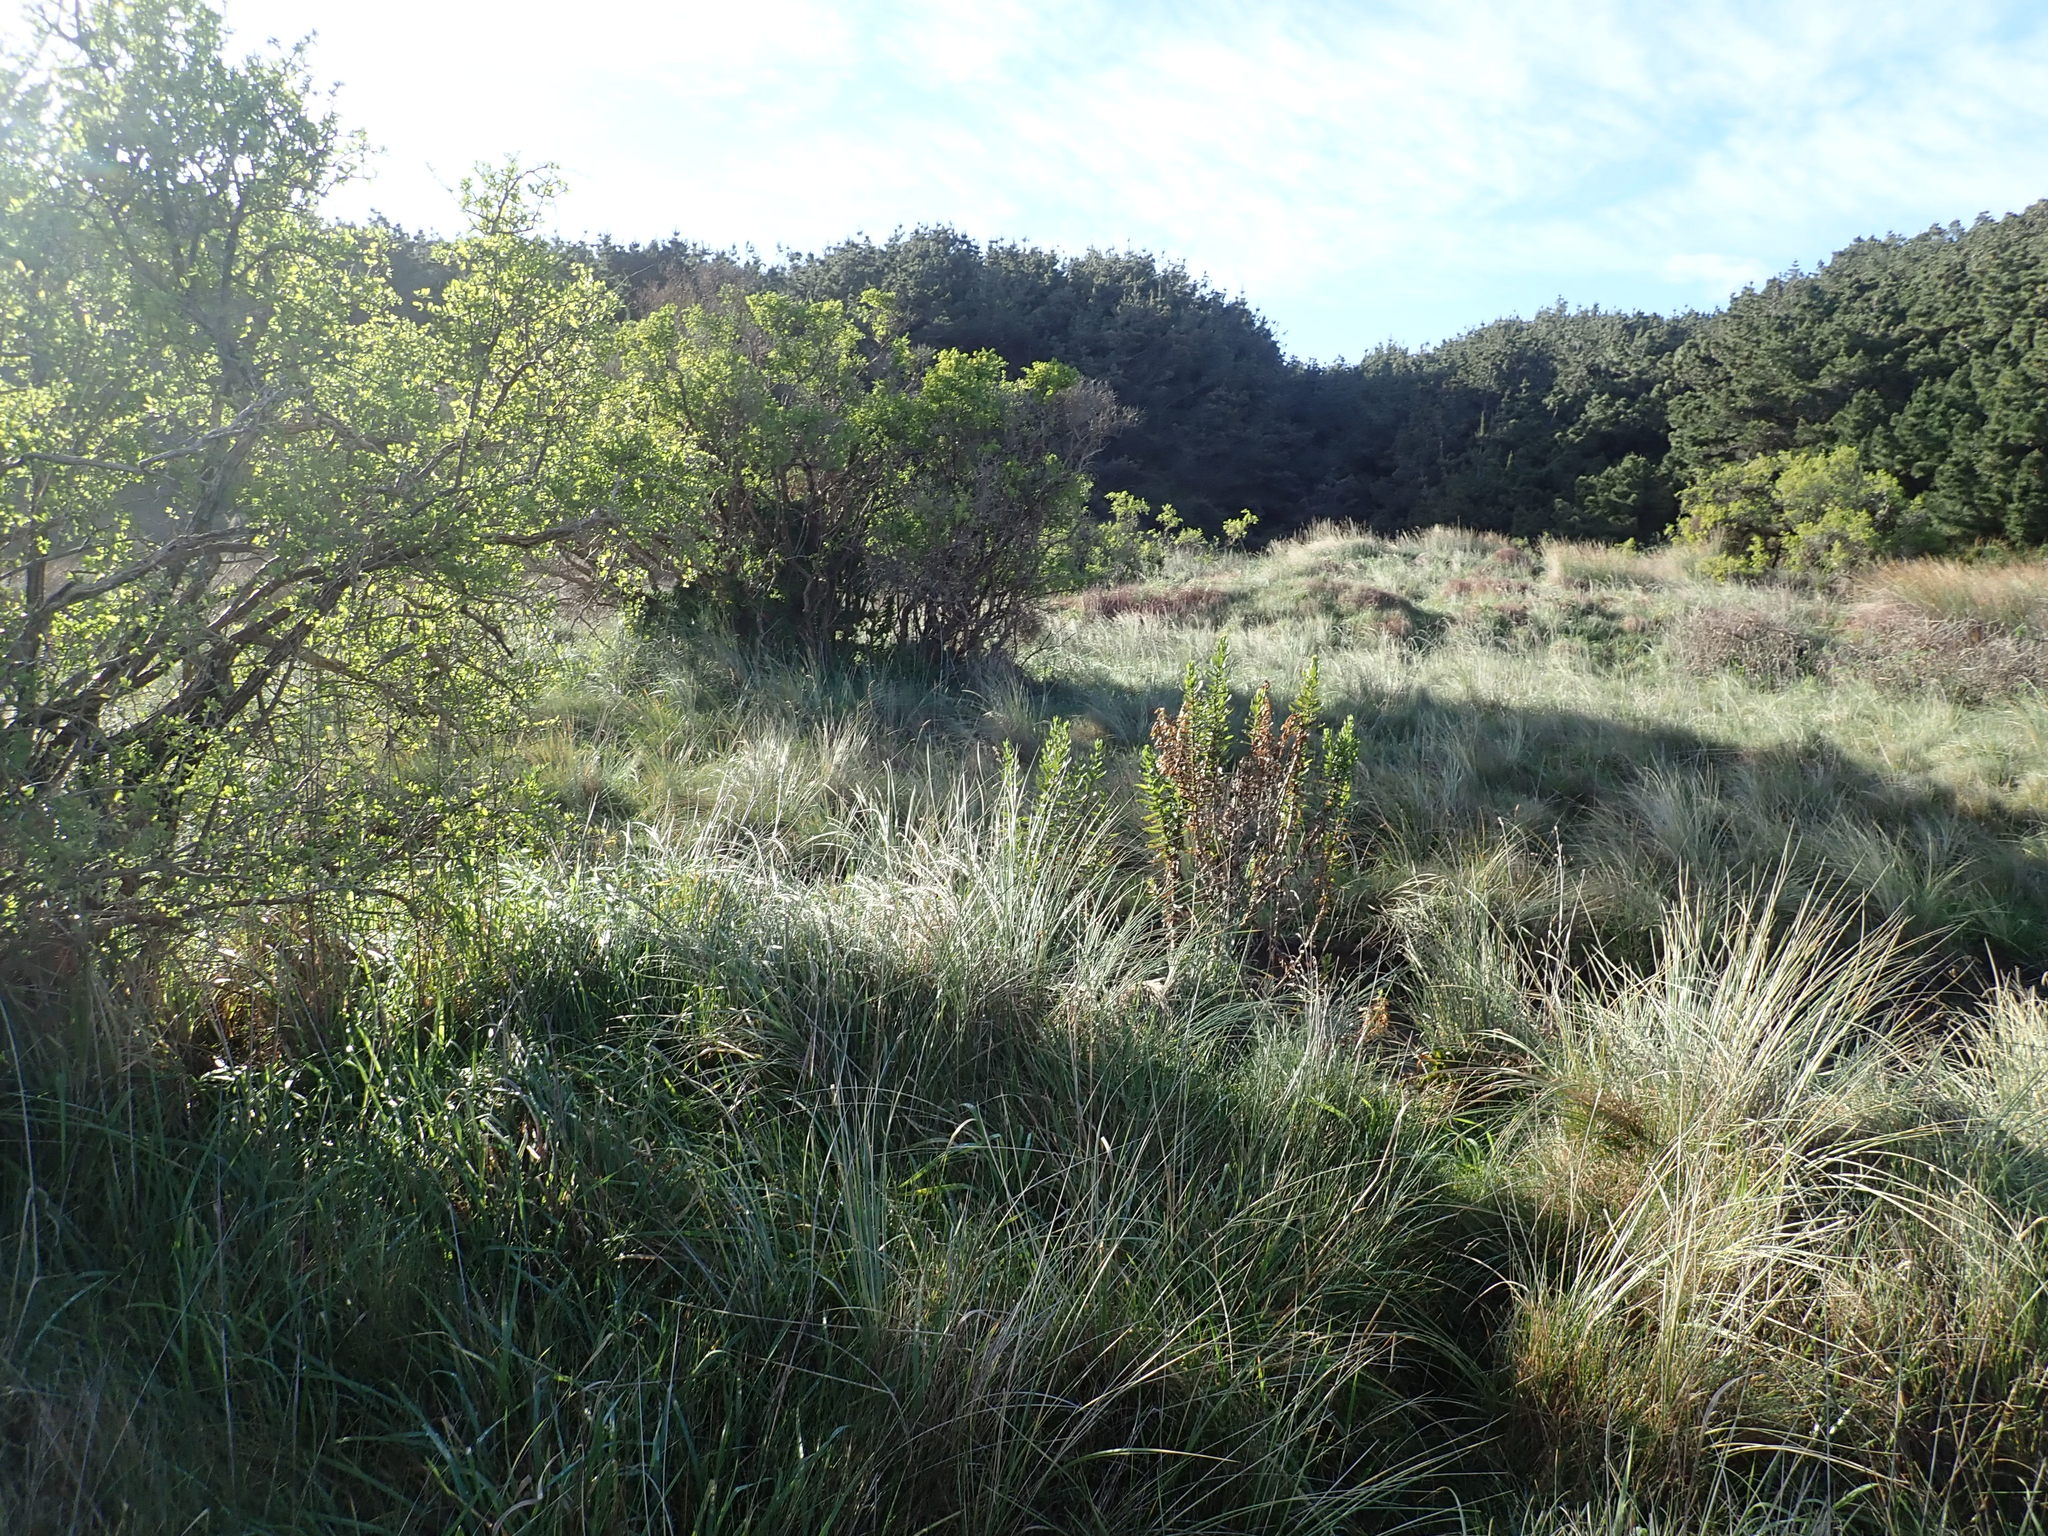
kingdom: Plantae
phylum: Tracheophyta
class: Magnoliopsida
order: Solanales
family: Solanaceae
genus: Lycium
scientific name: Lycium ferocissimum
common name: African boxthorn
